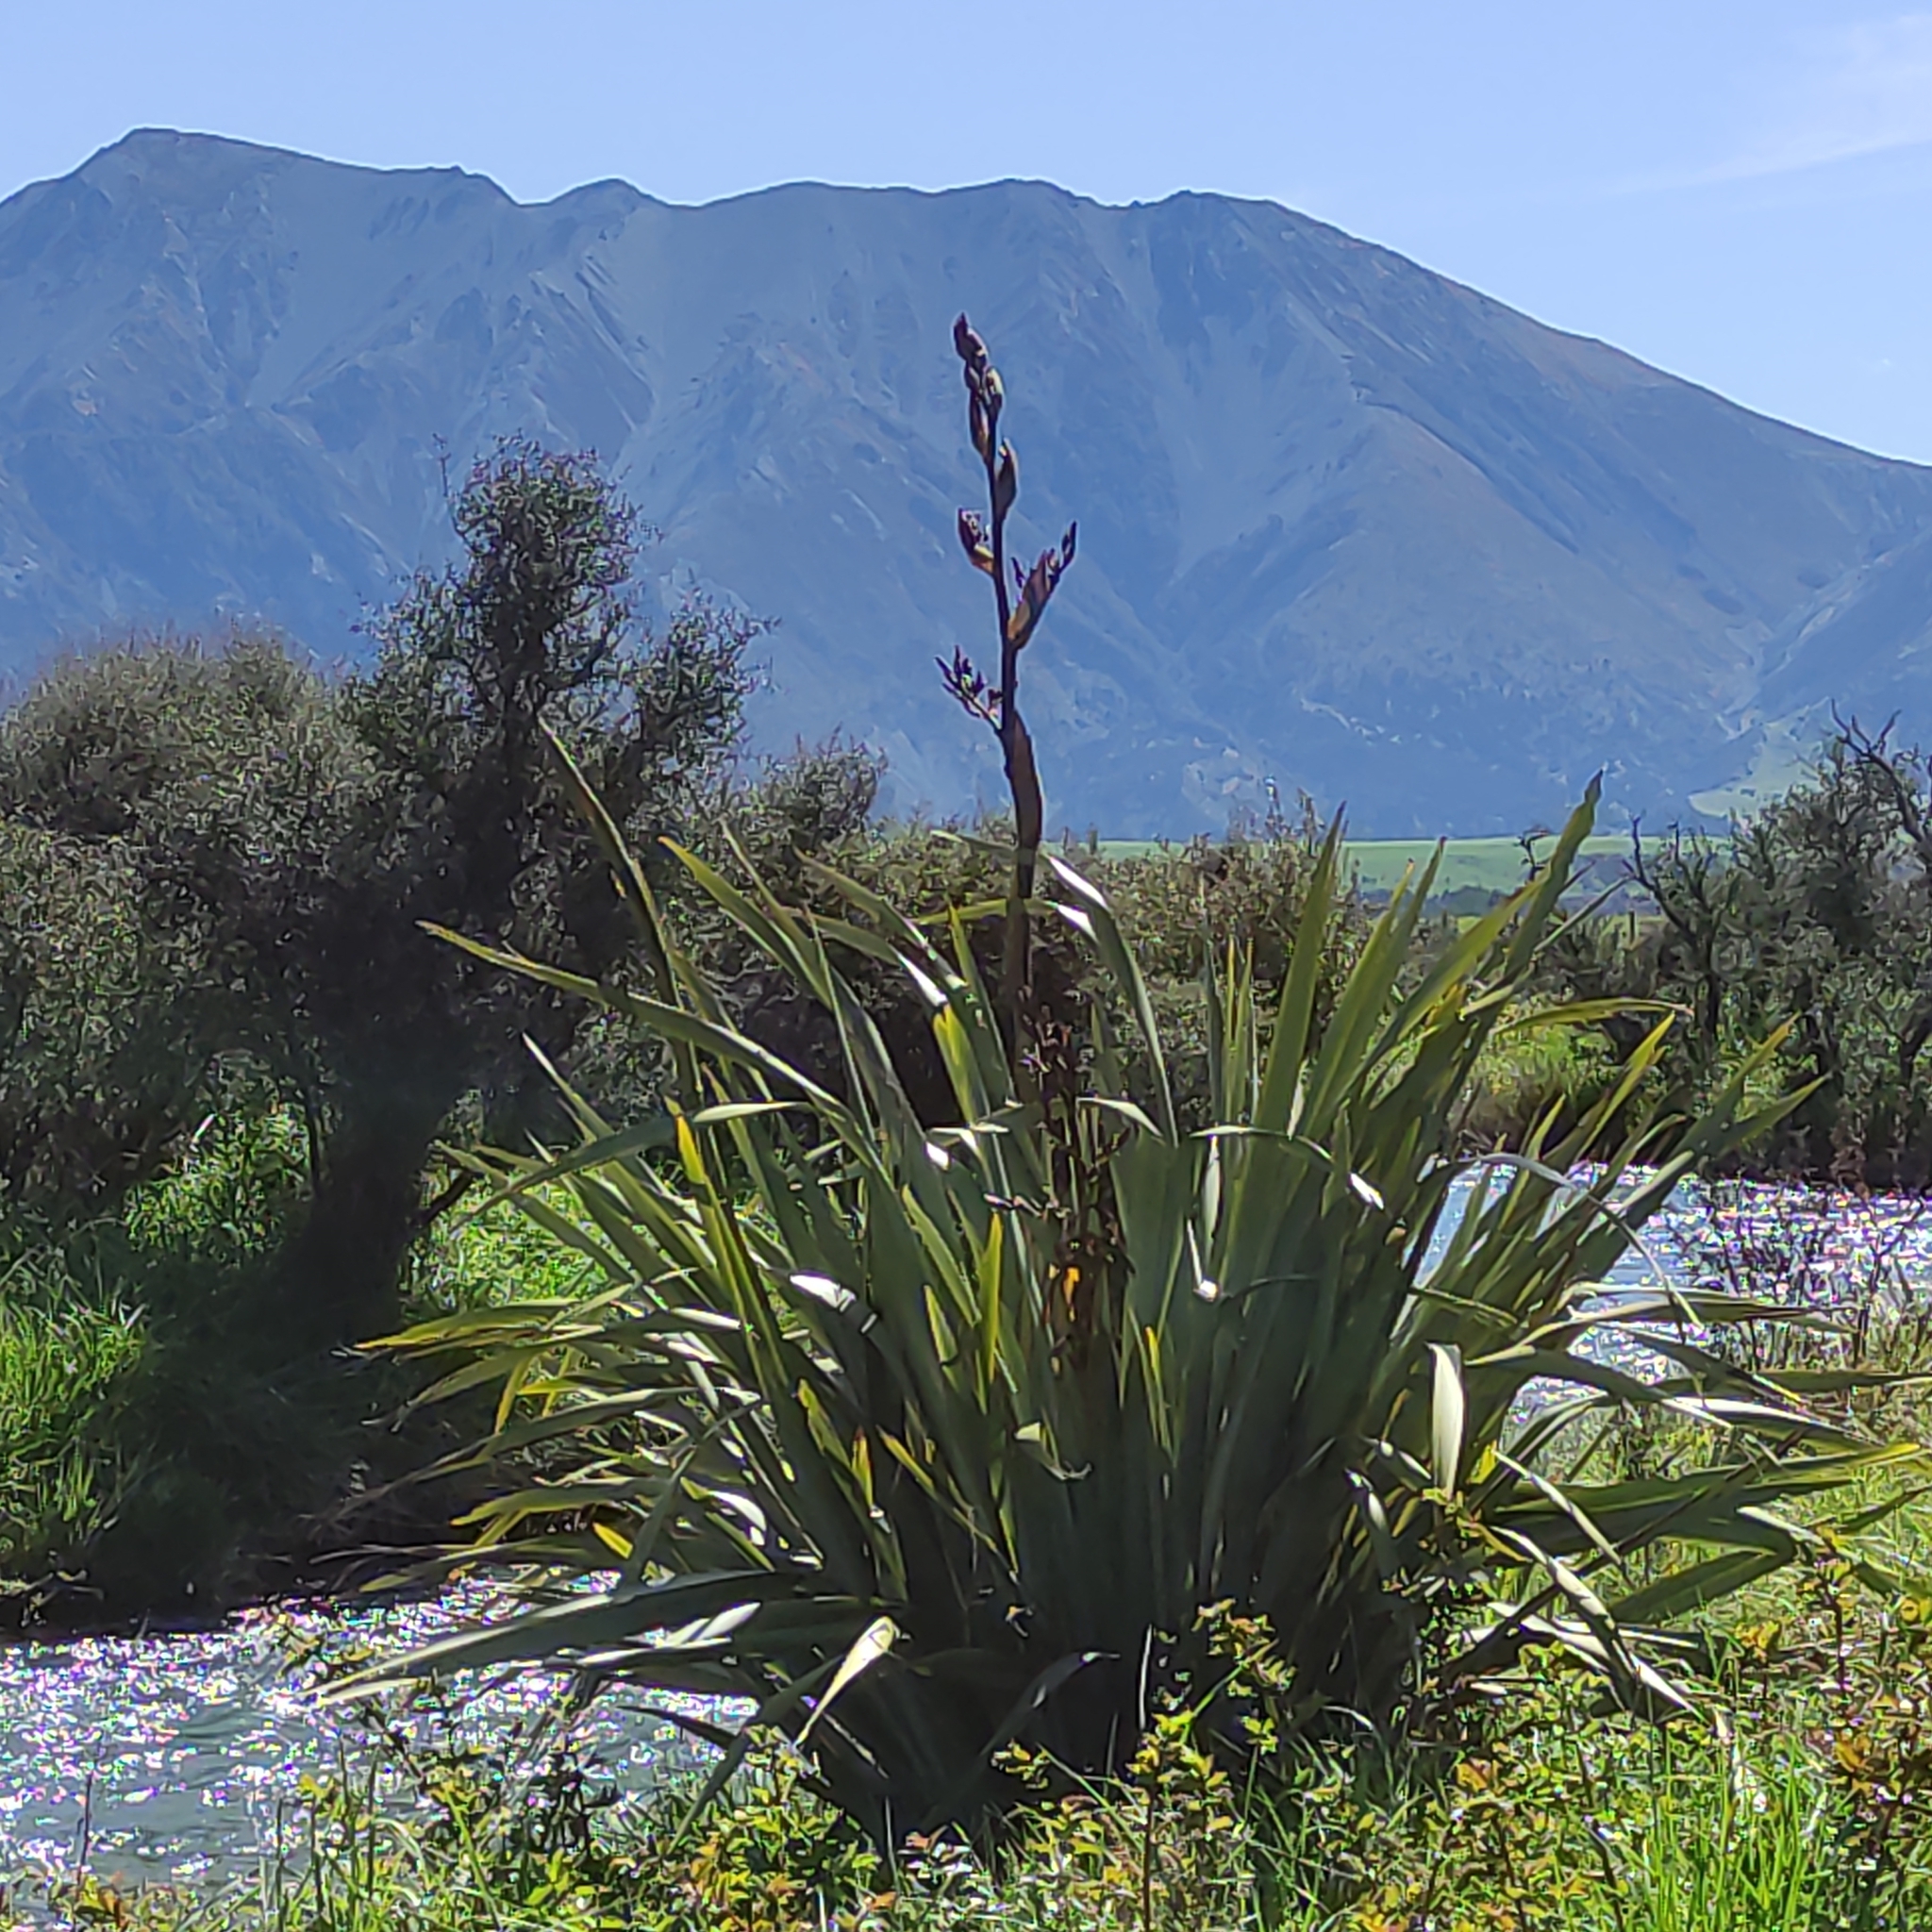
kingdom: Plantae
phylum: Tracheophyta
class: Liliopsida
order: Asparagales
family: Asphodelaceae
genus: Phormium
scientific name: Phormium tenax
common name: New zealand flax
